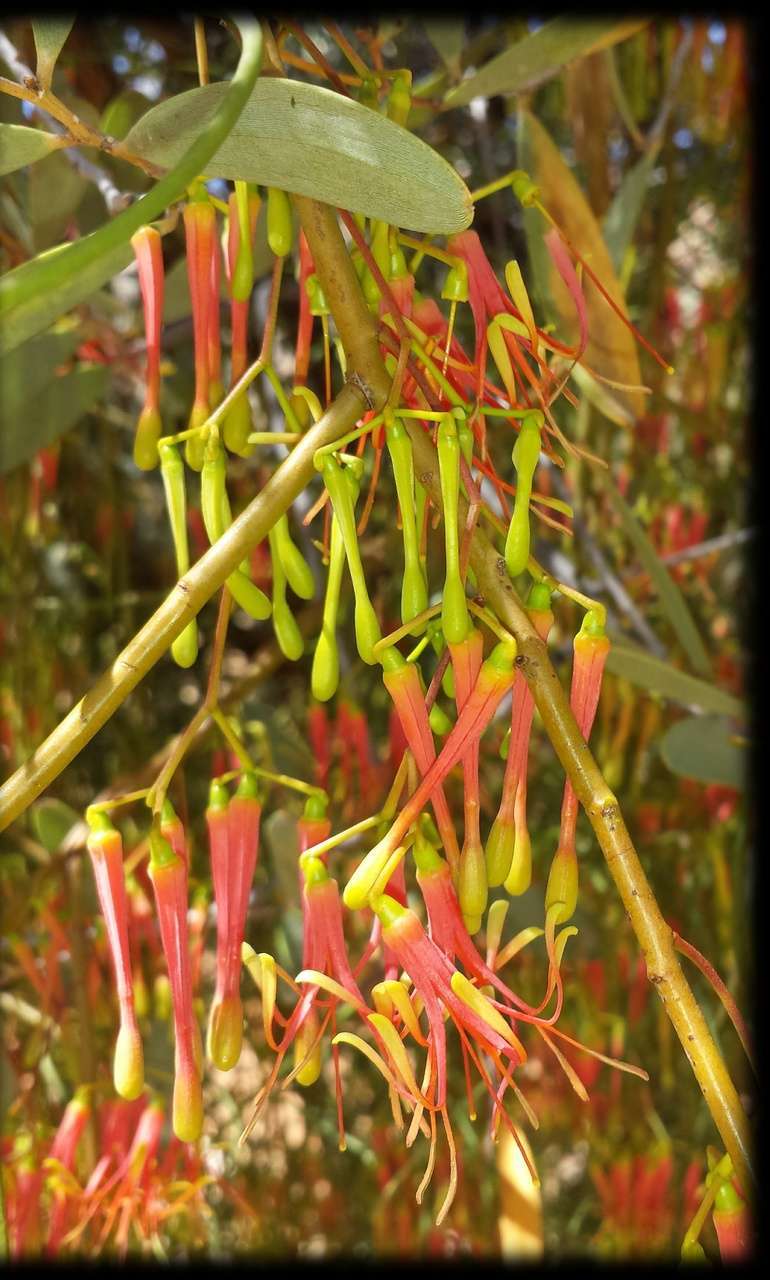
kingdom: Plantae
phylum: Tracheophyta
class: Magnoliopsida
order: Santalales
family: Loranthaceae
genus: Amyema
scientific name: Amyema preissii
